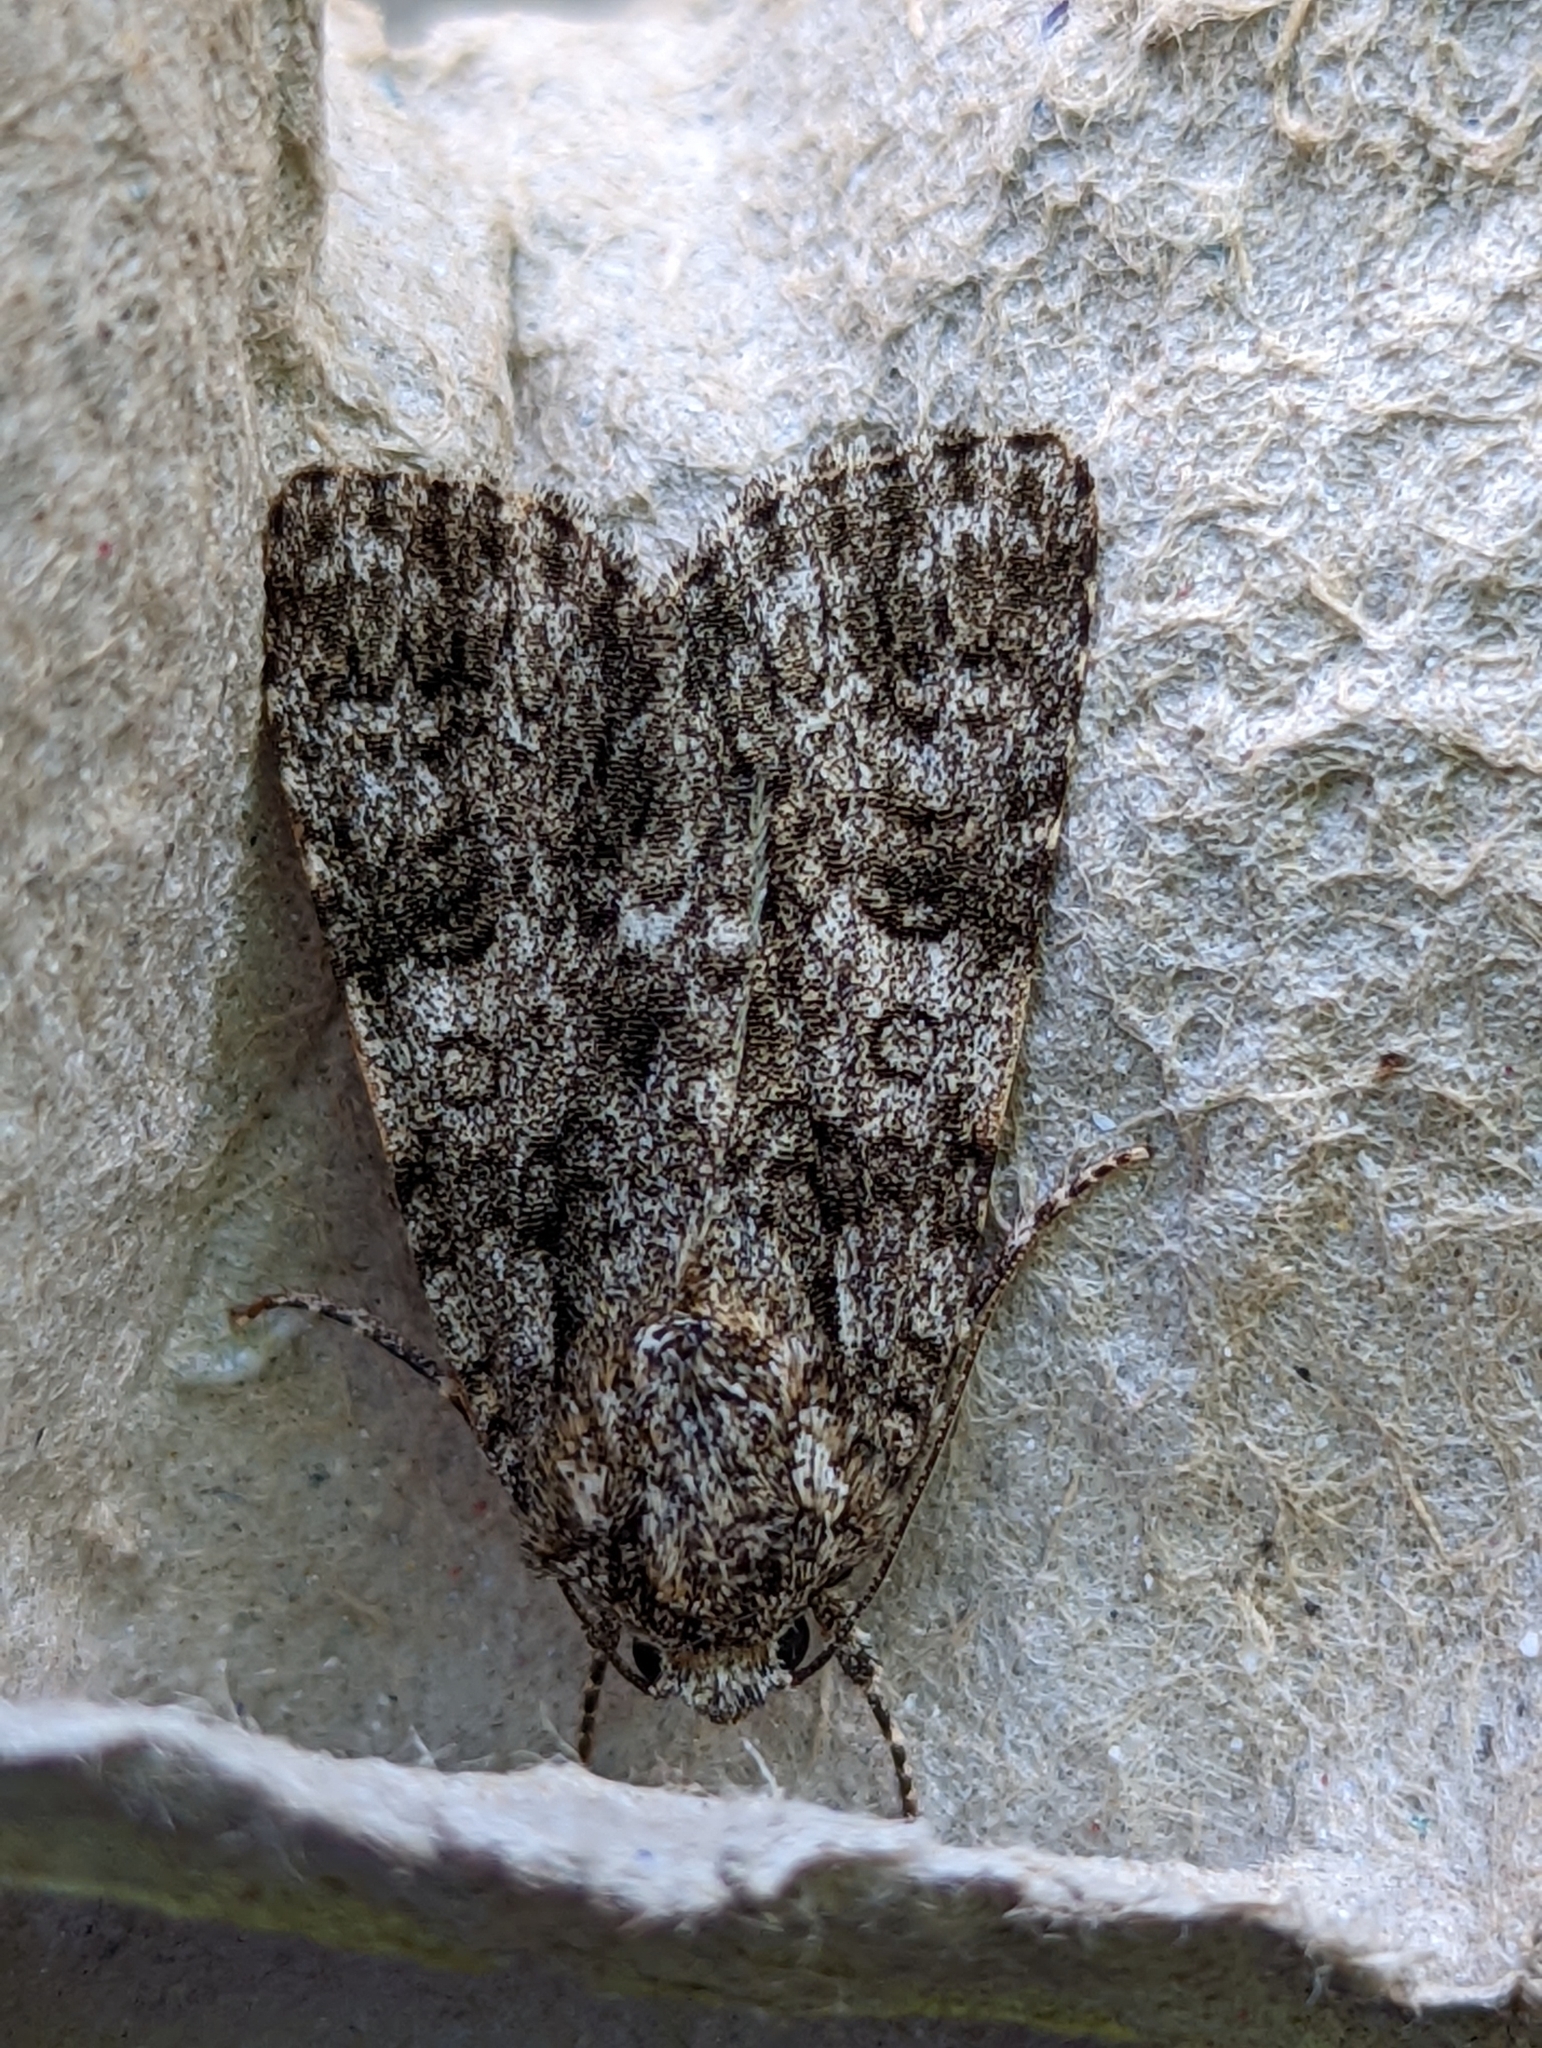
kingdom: Animalia
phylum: Arthropoda
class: Insecta
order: Lepidoptera
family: Noctuidae
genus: Acronicta
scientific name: Acronicta rumicis
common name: Knot grass
